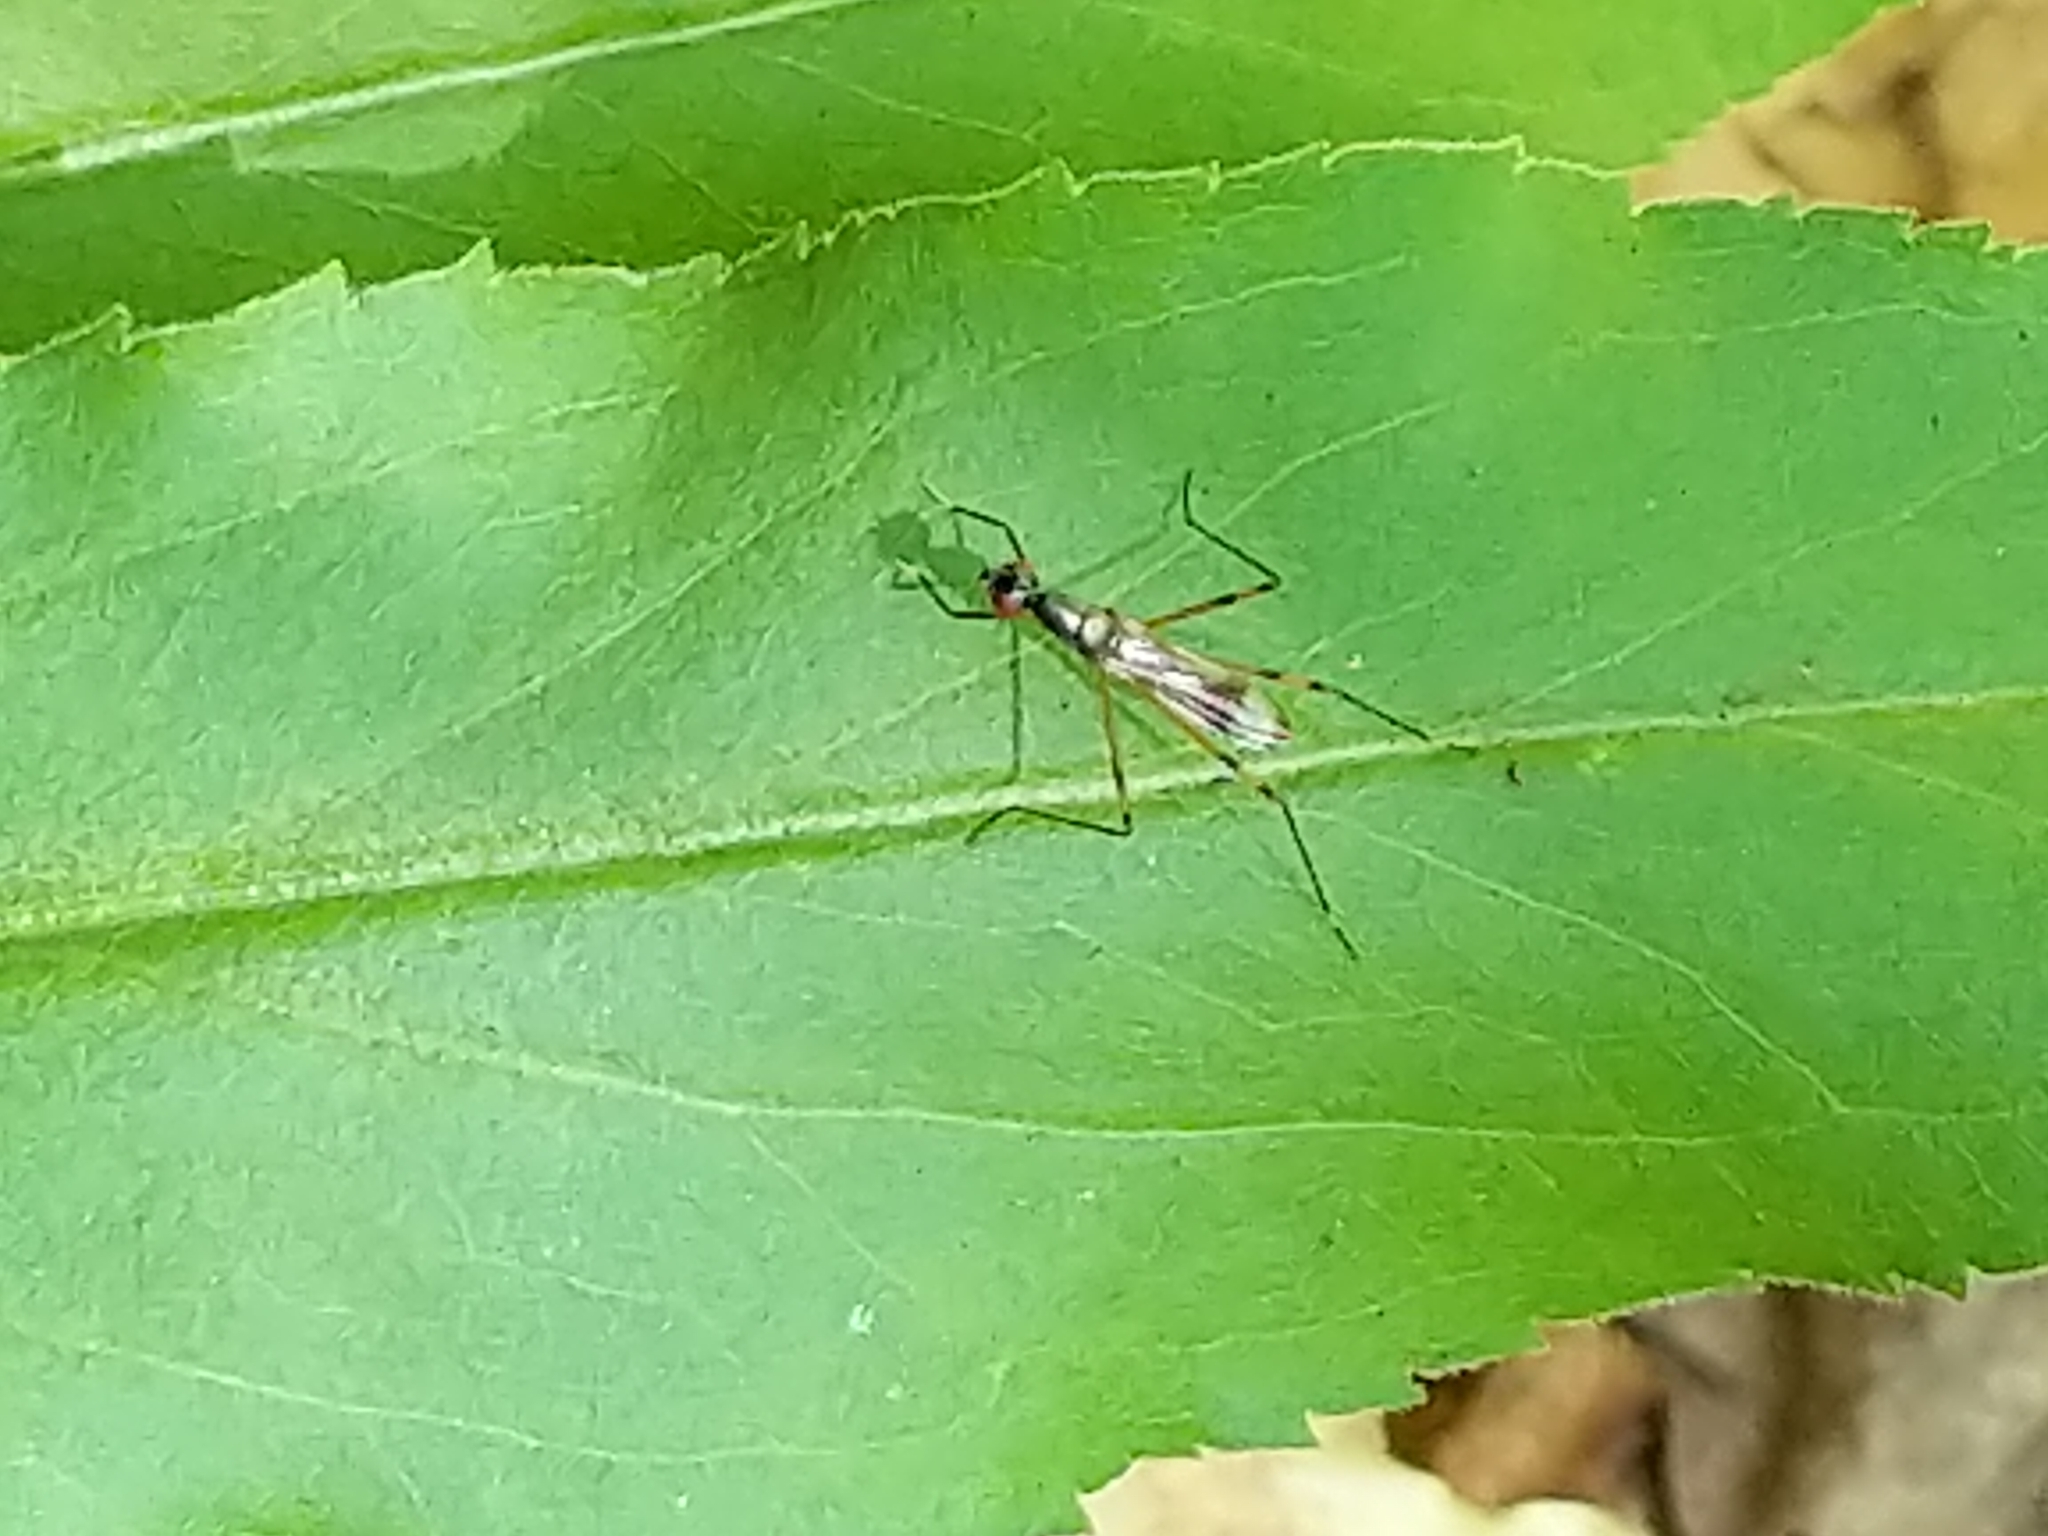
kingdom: Animalia
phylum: Arthropoda
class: Insecta
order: Diptera
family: Micropezidae
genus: Rainieria
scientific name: Rainieria antennaepes
